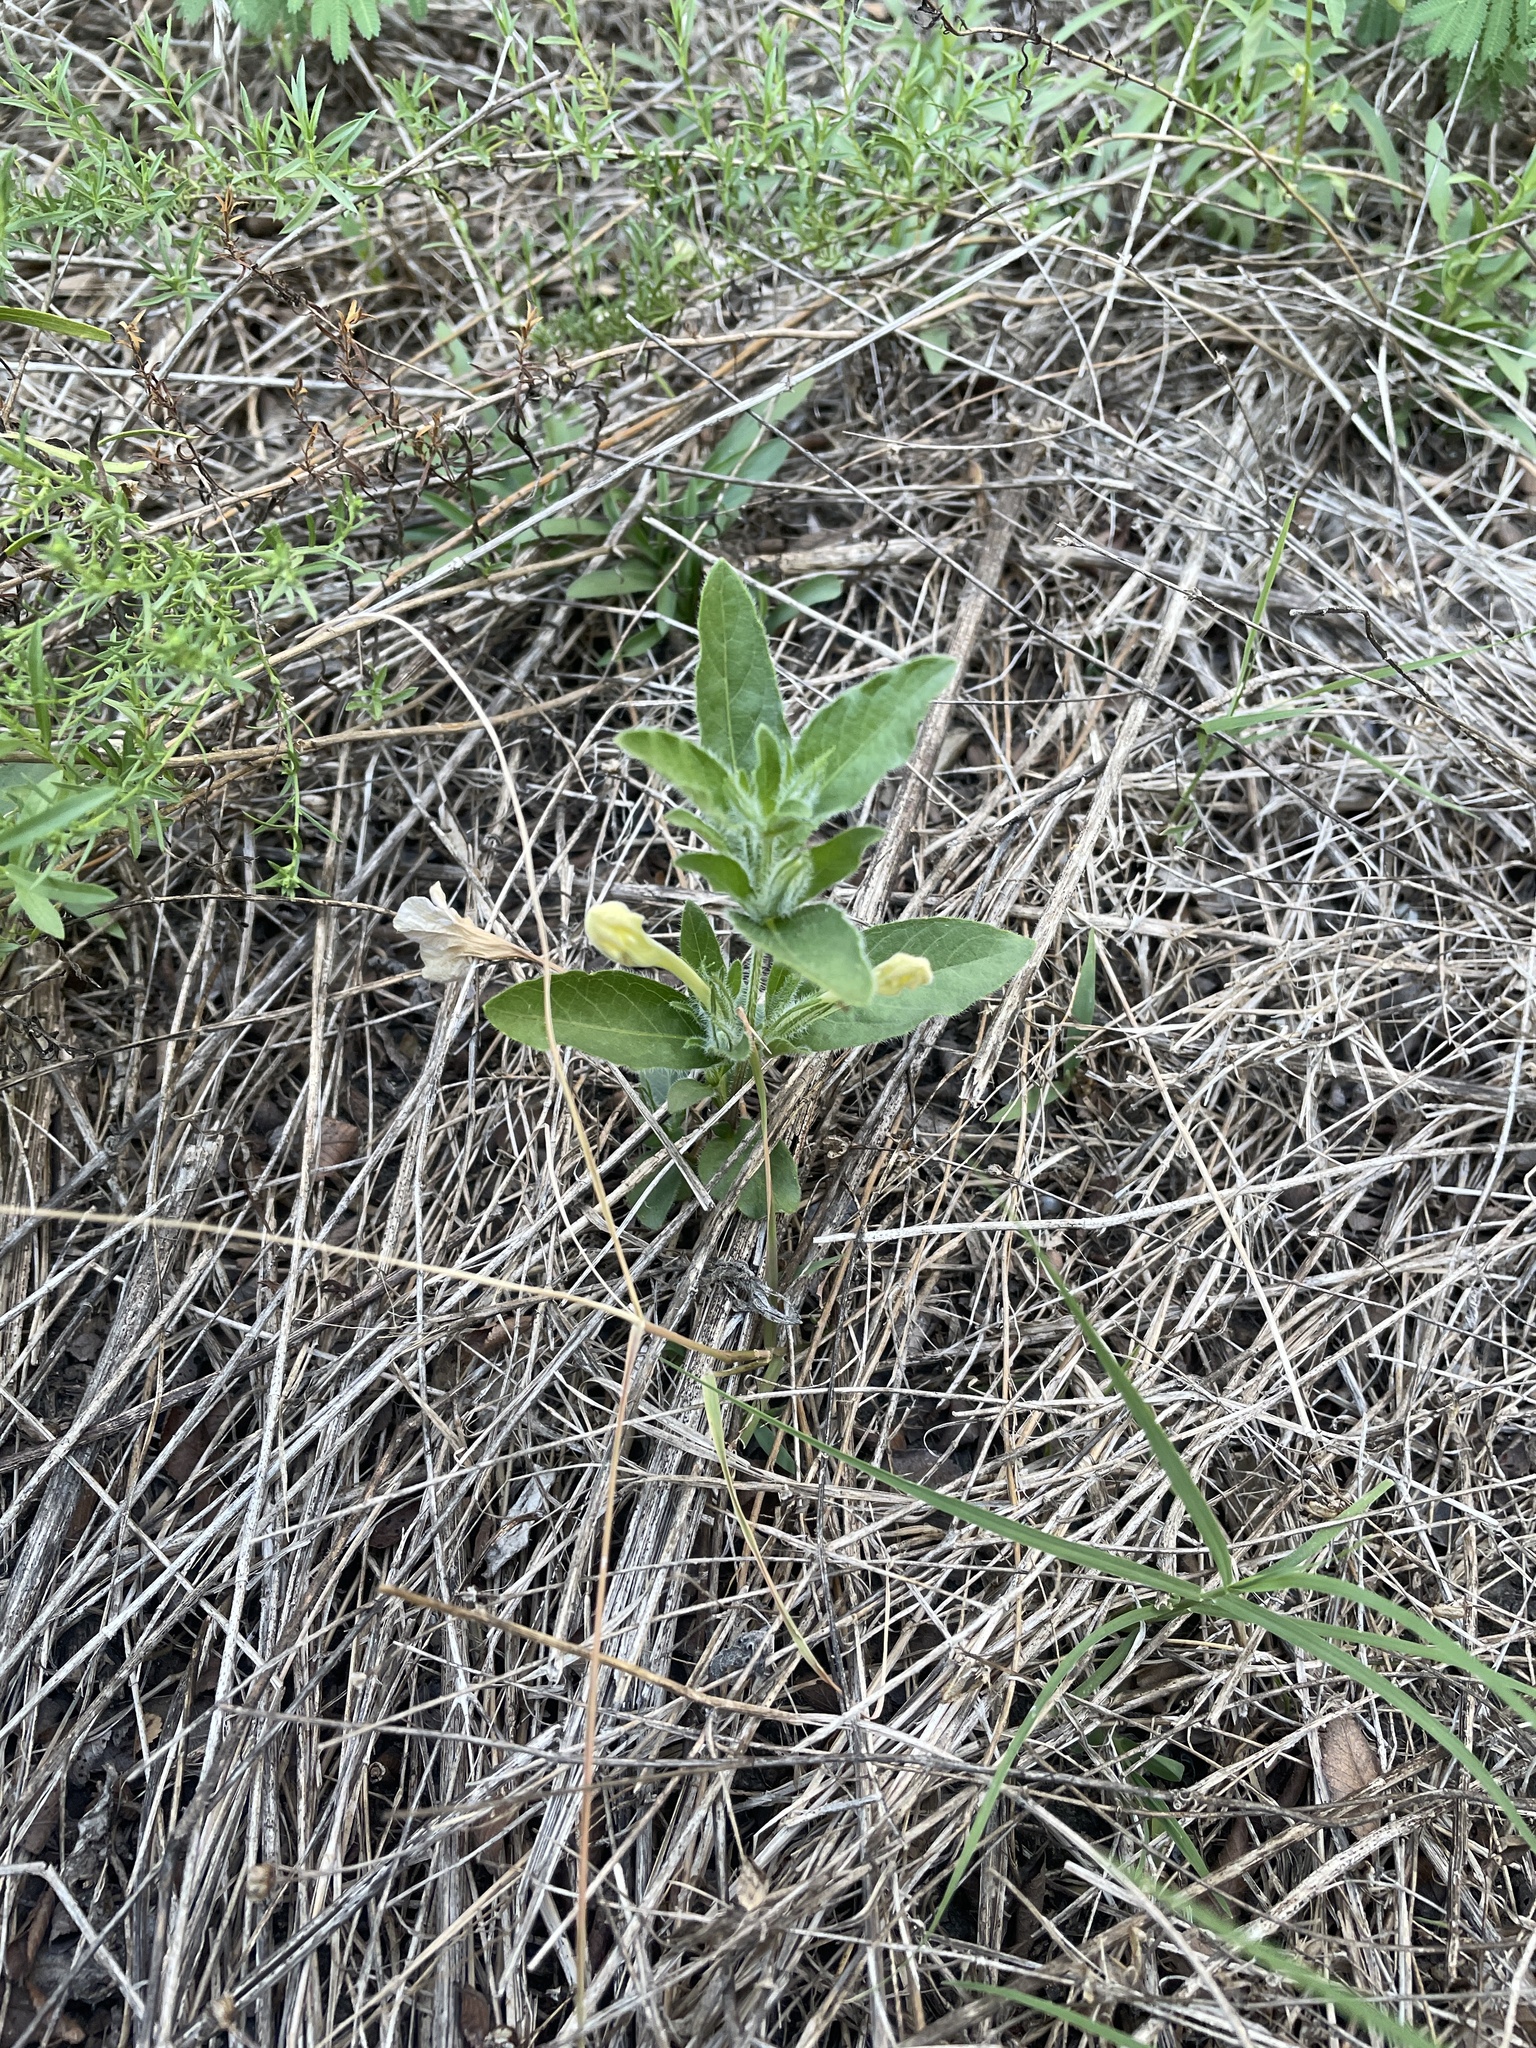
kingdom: Plantae
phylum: Tracheophyta
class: Magnoliopsida
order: Lamiales
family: Acanthaceae
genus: Ruellia
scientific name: Ruellia humilis
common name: Fringe-leaf ruellia
